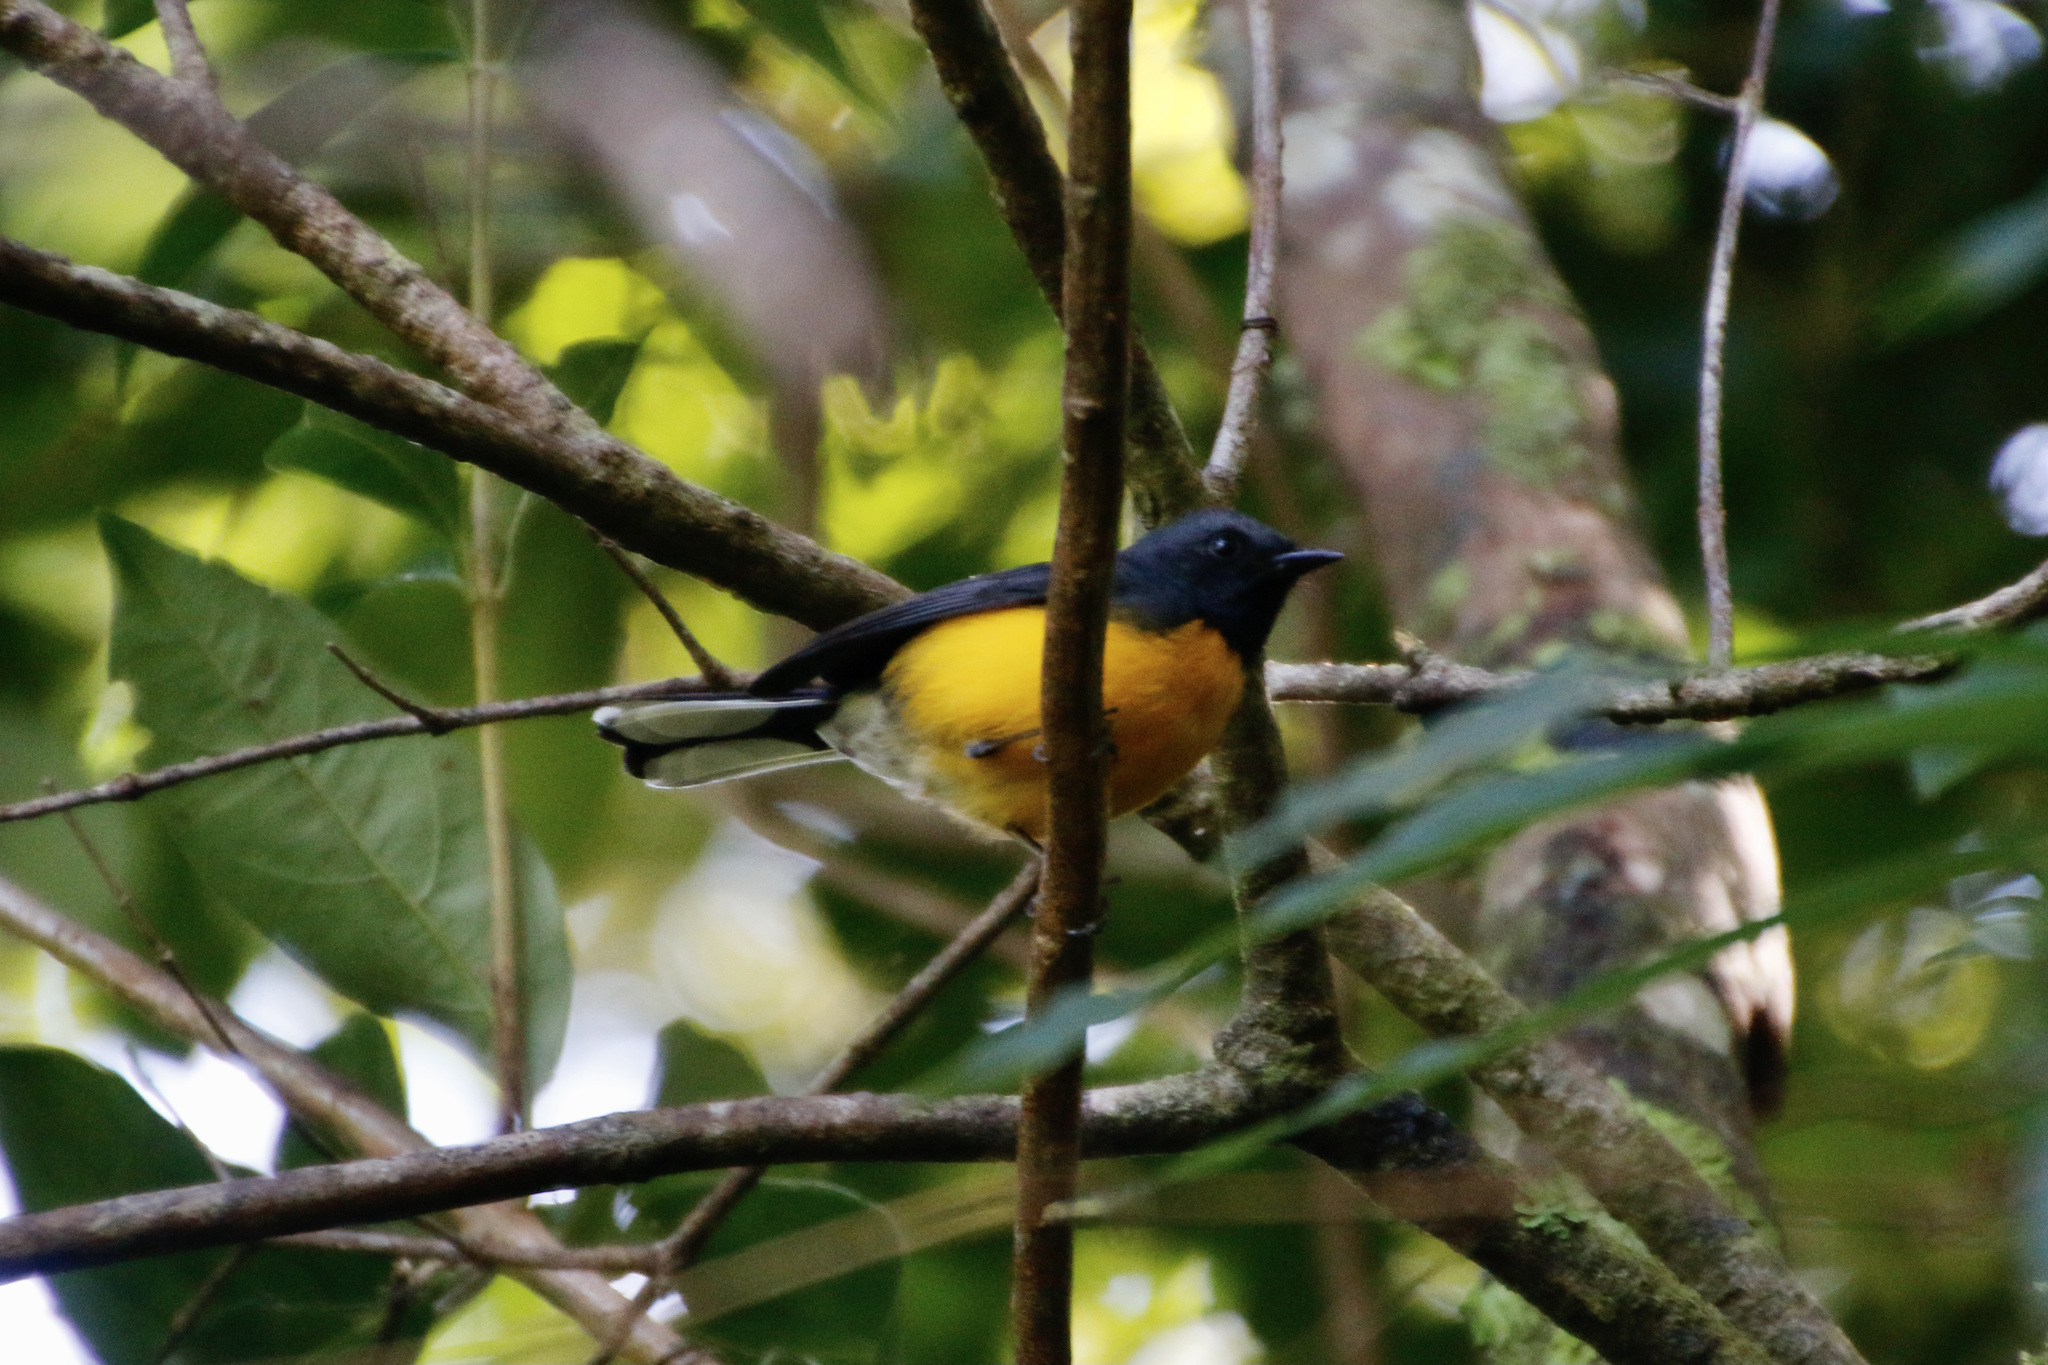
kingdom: Animalia
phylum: Chordata
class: Aves
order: Passeriformes
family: Parulidae
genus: Myioborus
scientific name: Myioborus miniatus
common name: Slate-throated redstart
